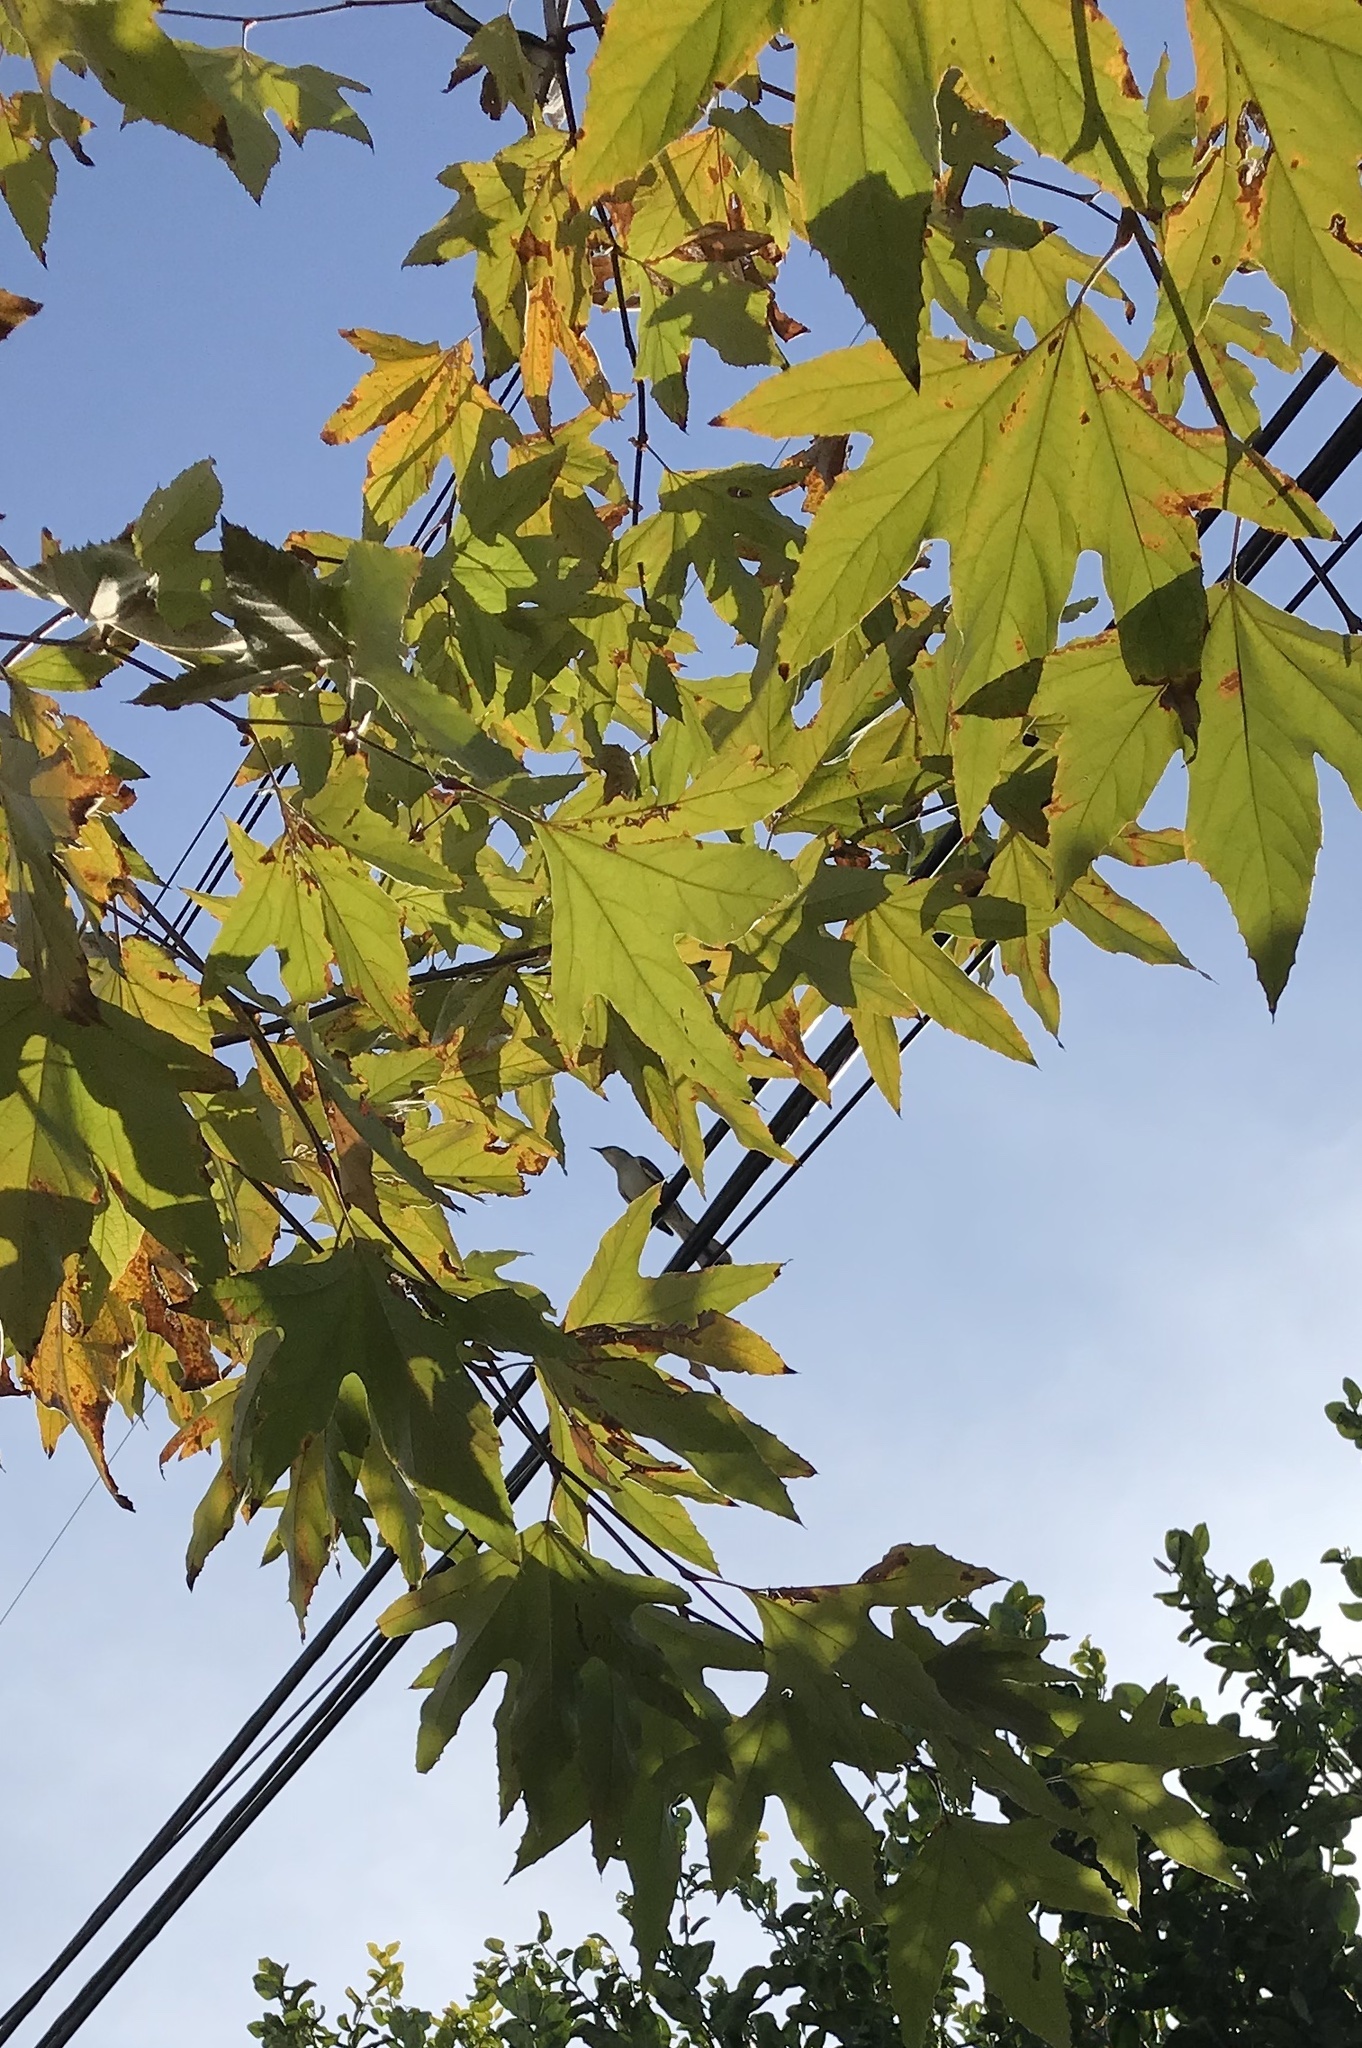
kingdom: Animalia
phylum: Chordata
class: Aves
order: Passeriformes
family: Mimidae
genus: Mimus
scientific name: Mimus polyglottos
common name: Northern mockingbird
